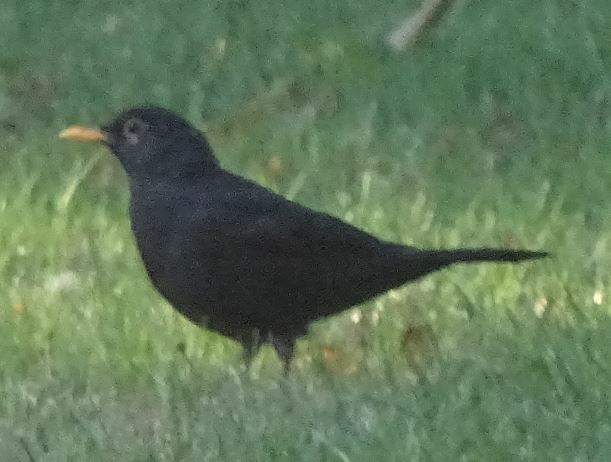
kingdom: Animalia
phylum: Chordata
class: Aves
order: Passeriformes
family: Turdidae
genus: Turdus
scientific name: Turdus merula
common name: Common blackbird
